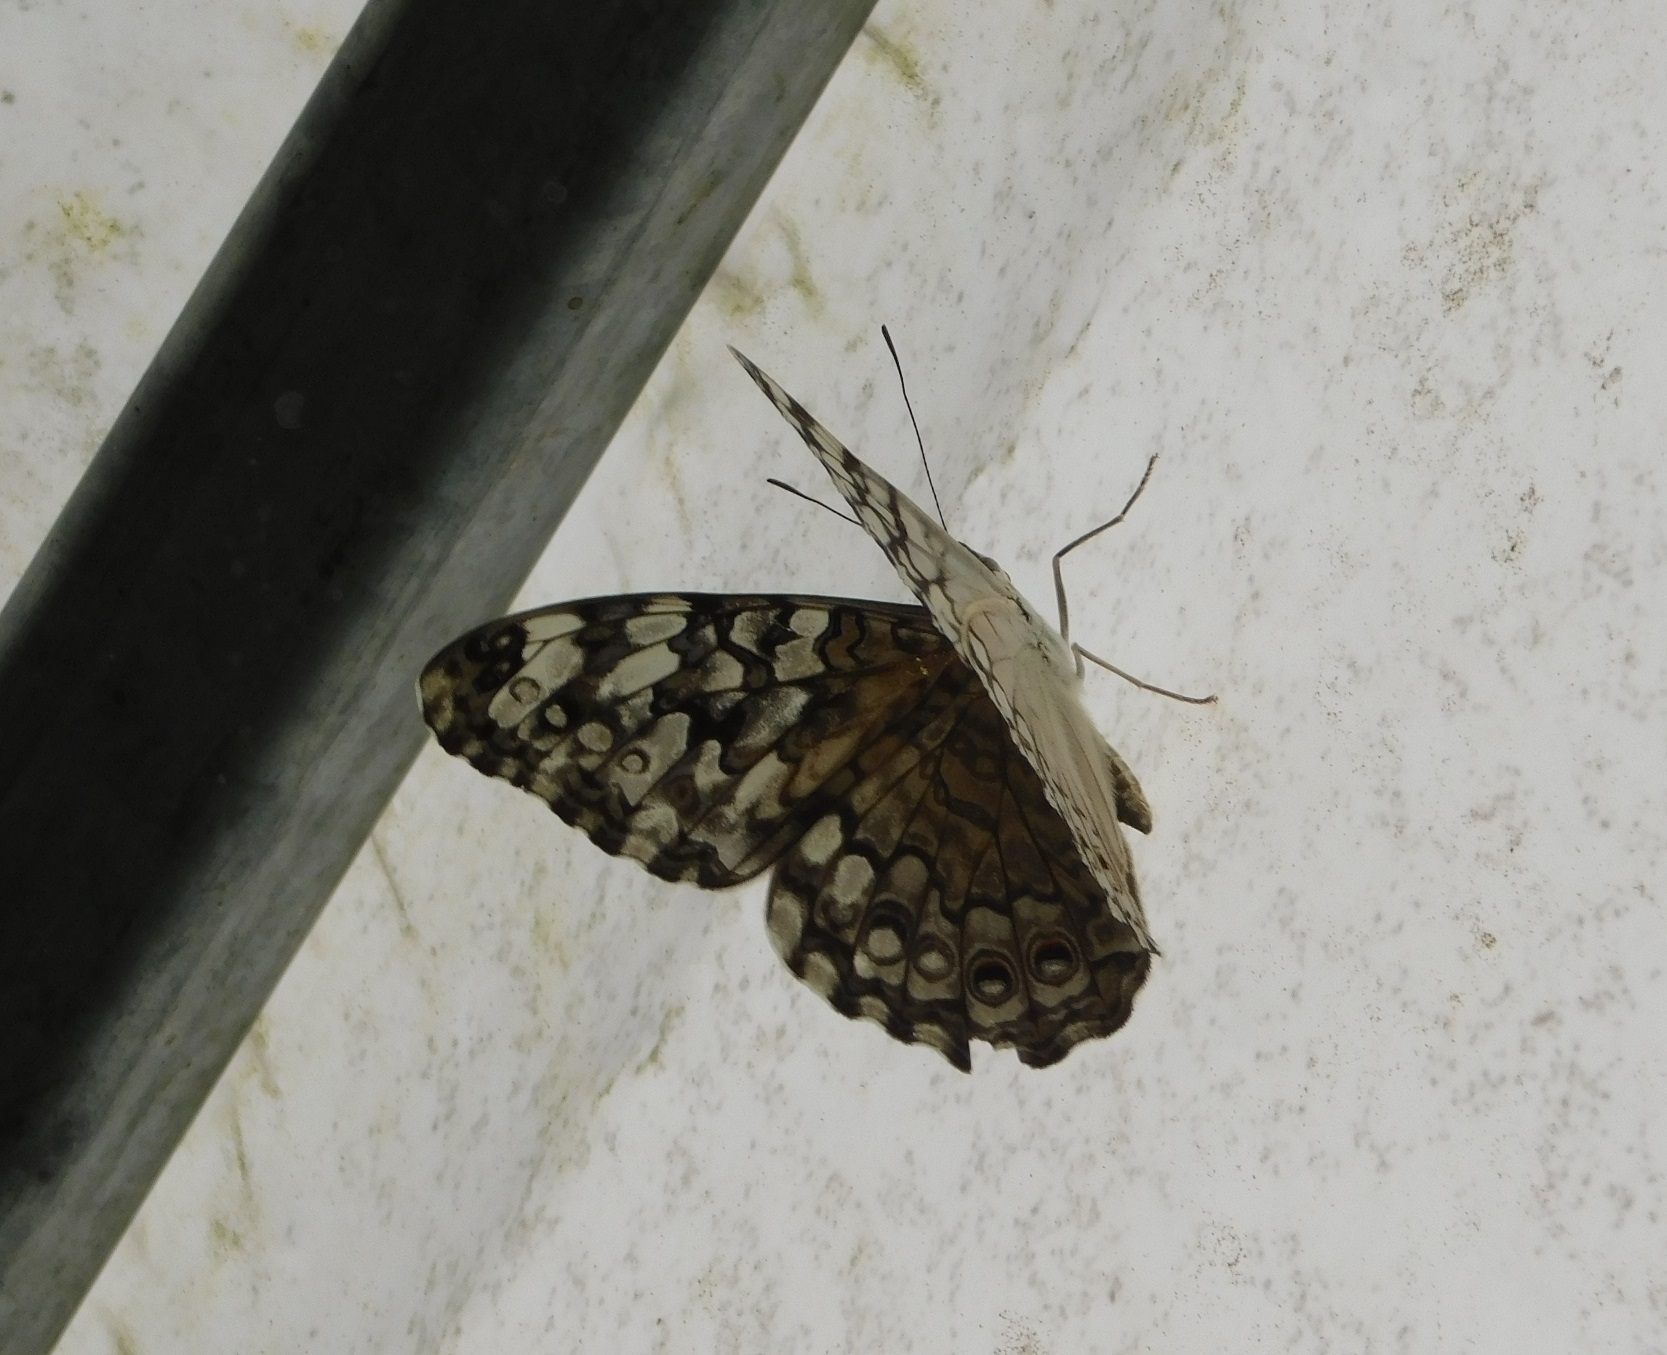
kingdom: Animalia
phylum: Arthropoda
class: Insecta
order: Lepidoptera
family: Nymphalidae
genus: Hamadryas
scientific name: Hamadryas februa
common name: Gray cracker
